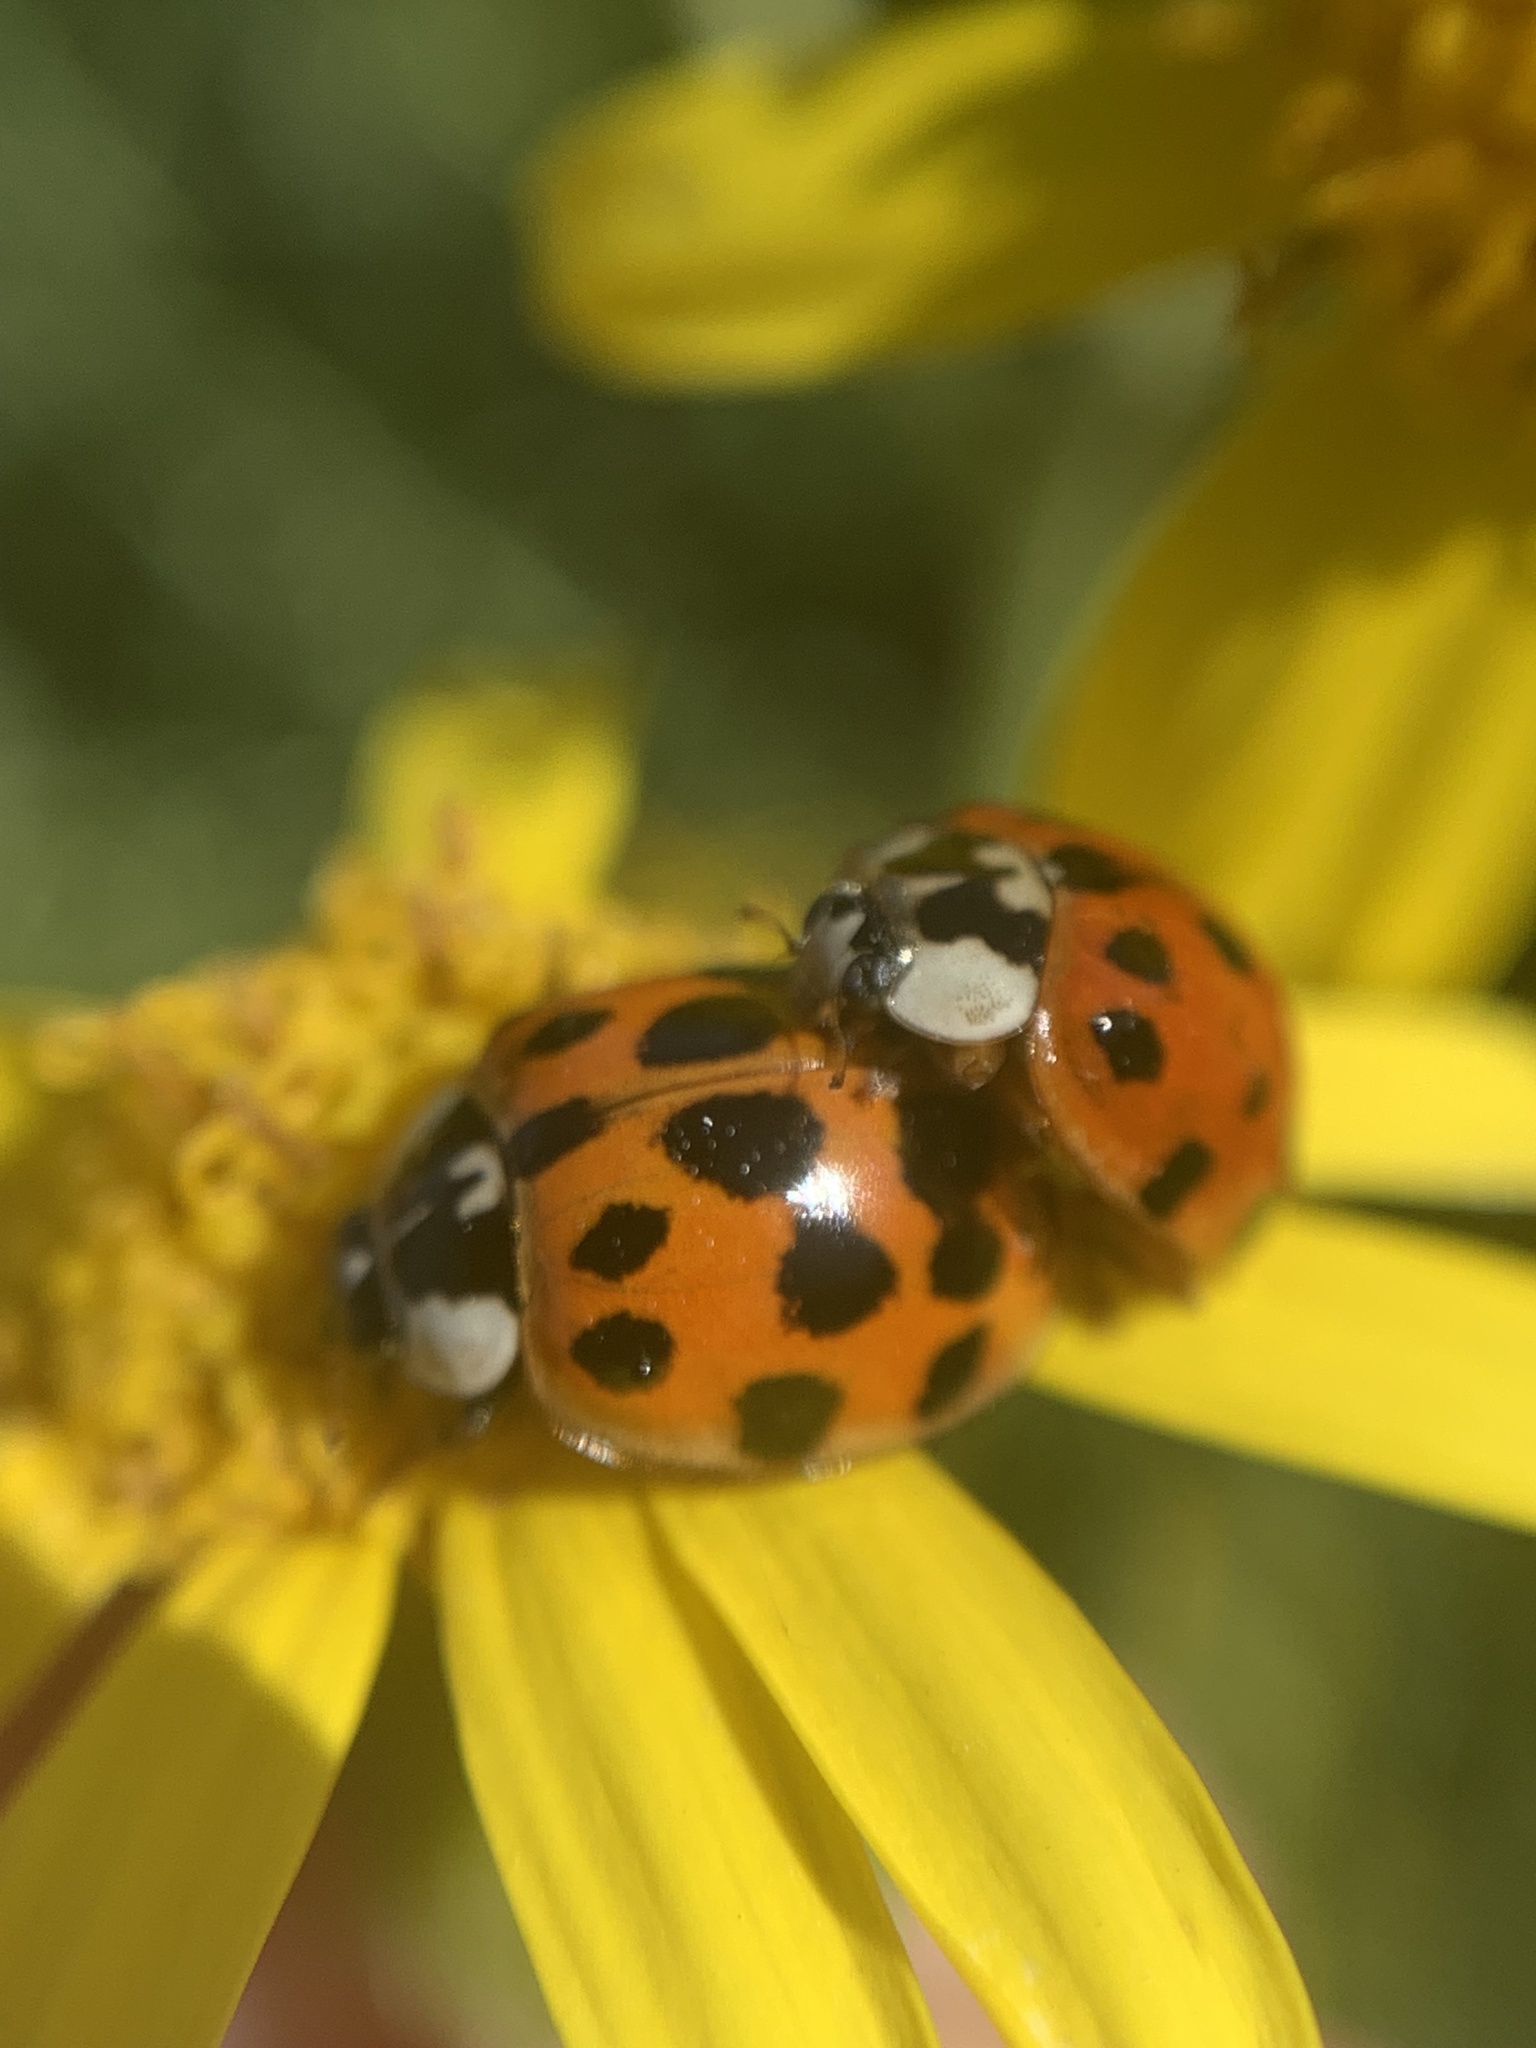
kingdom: Animalia
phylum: Arthropoda
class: Insecta
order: Coleoptera
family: Coccinellidae
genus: Harmonia
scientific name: Harmonia axyridis
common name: Harlequin ladybird
